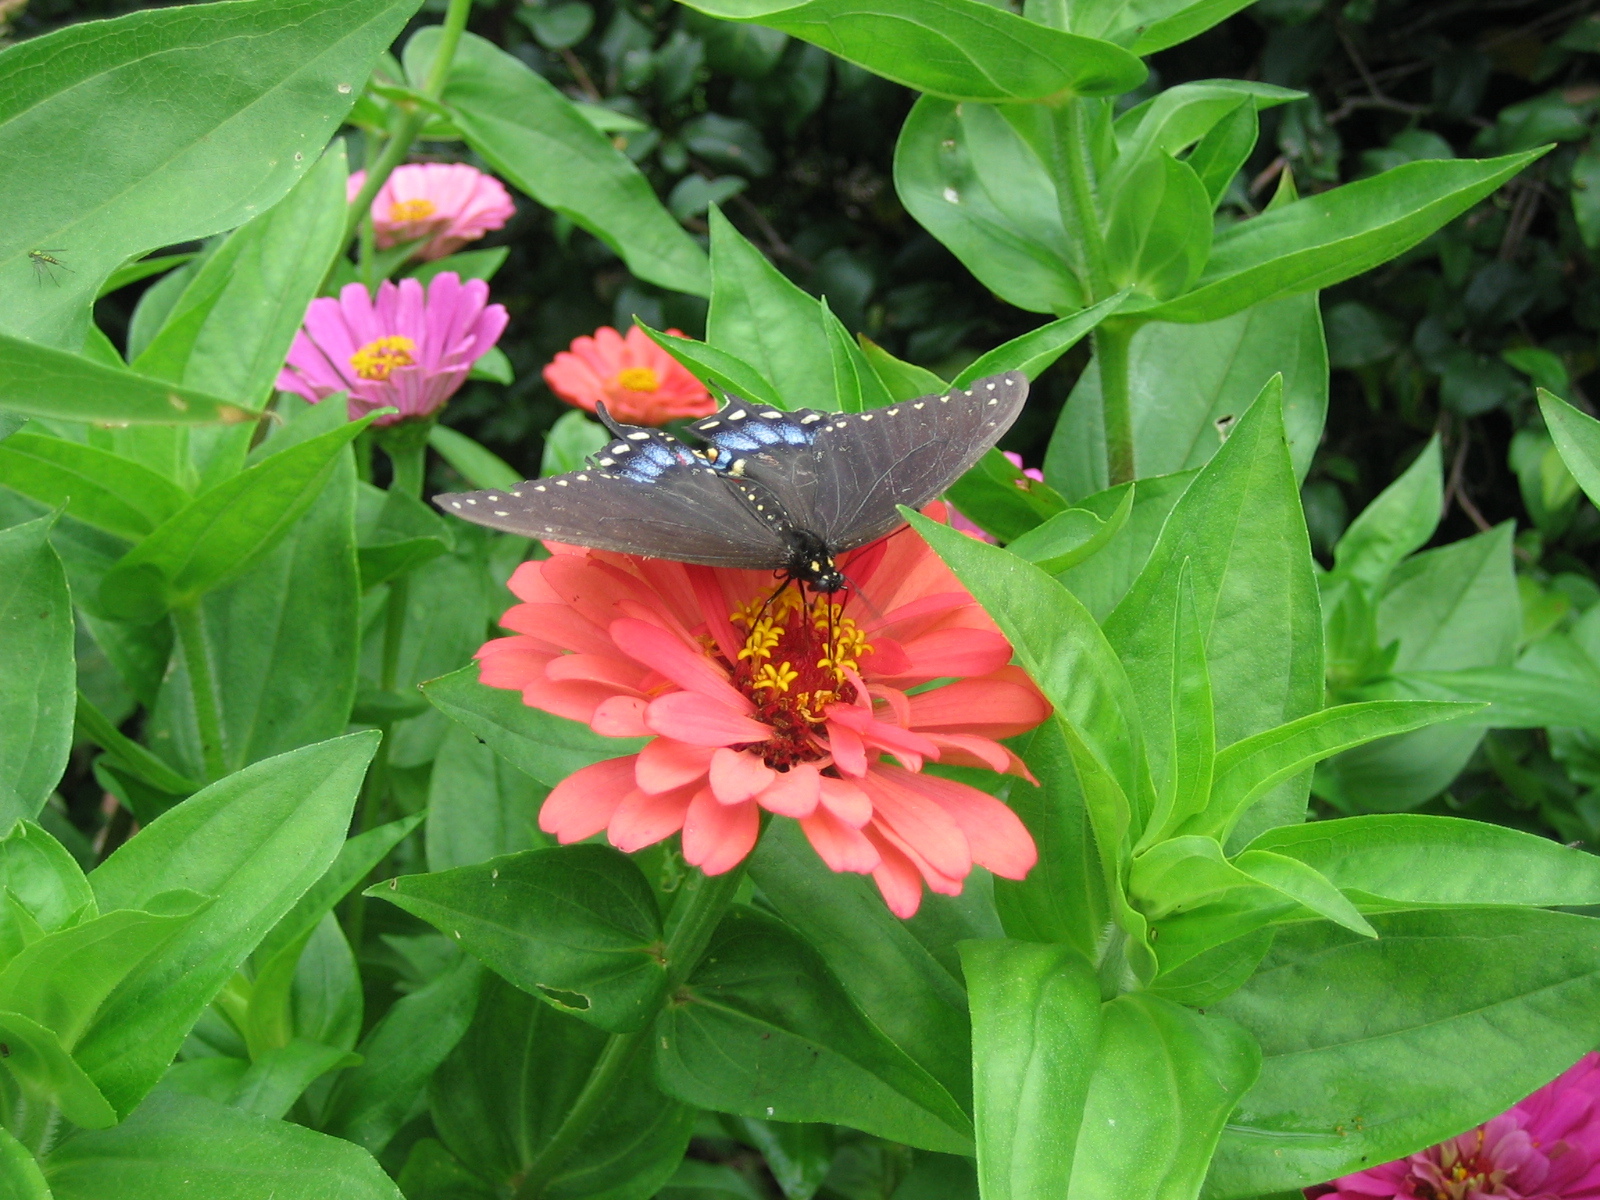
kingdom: Animalia
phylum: Arthropoda
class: Insecta
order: Lepidoptera
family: Papilionidae
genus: Papilio
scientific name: Papilio troilus
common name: Spicebush swallowtail
